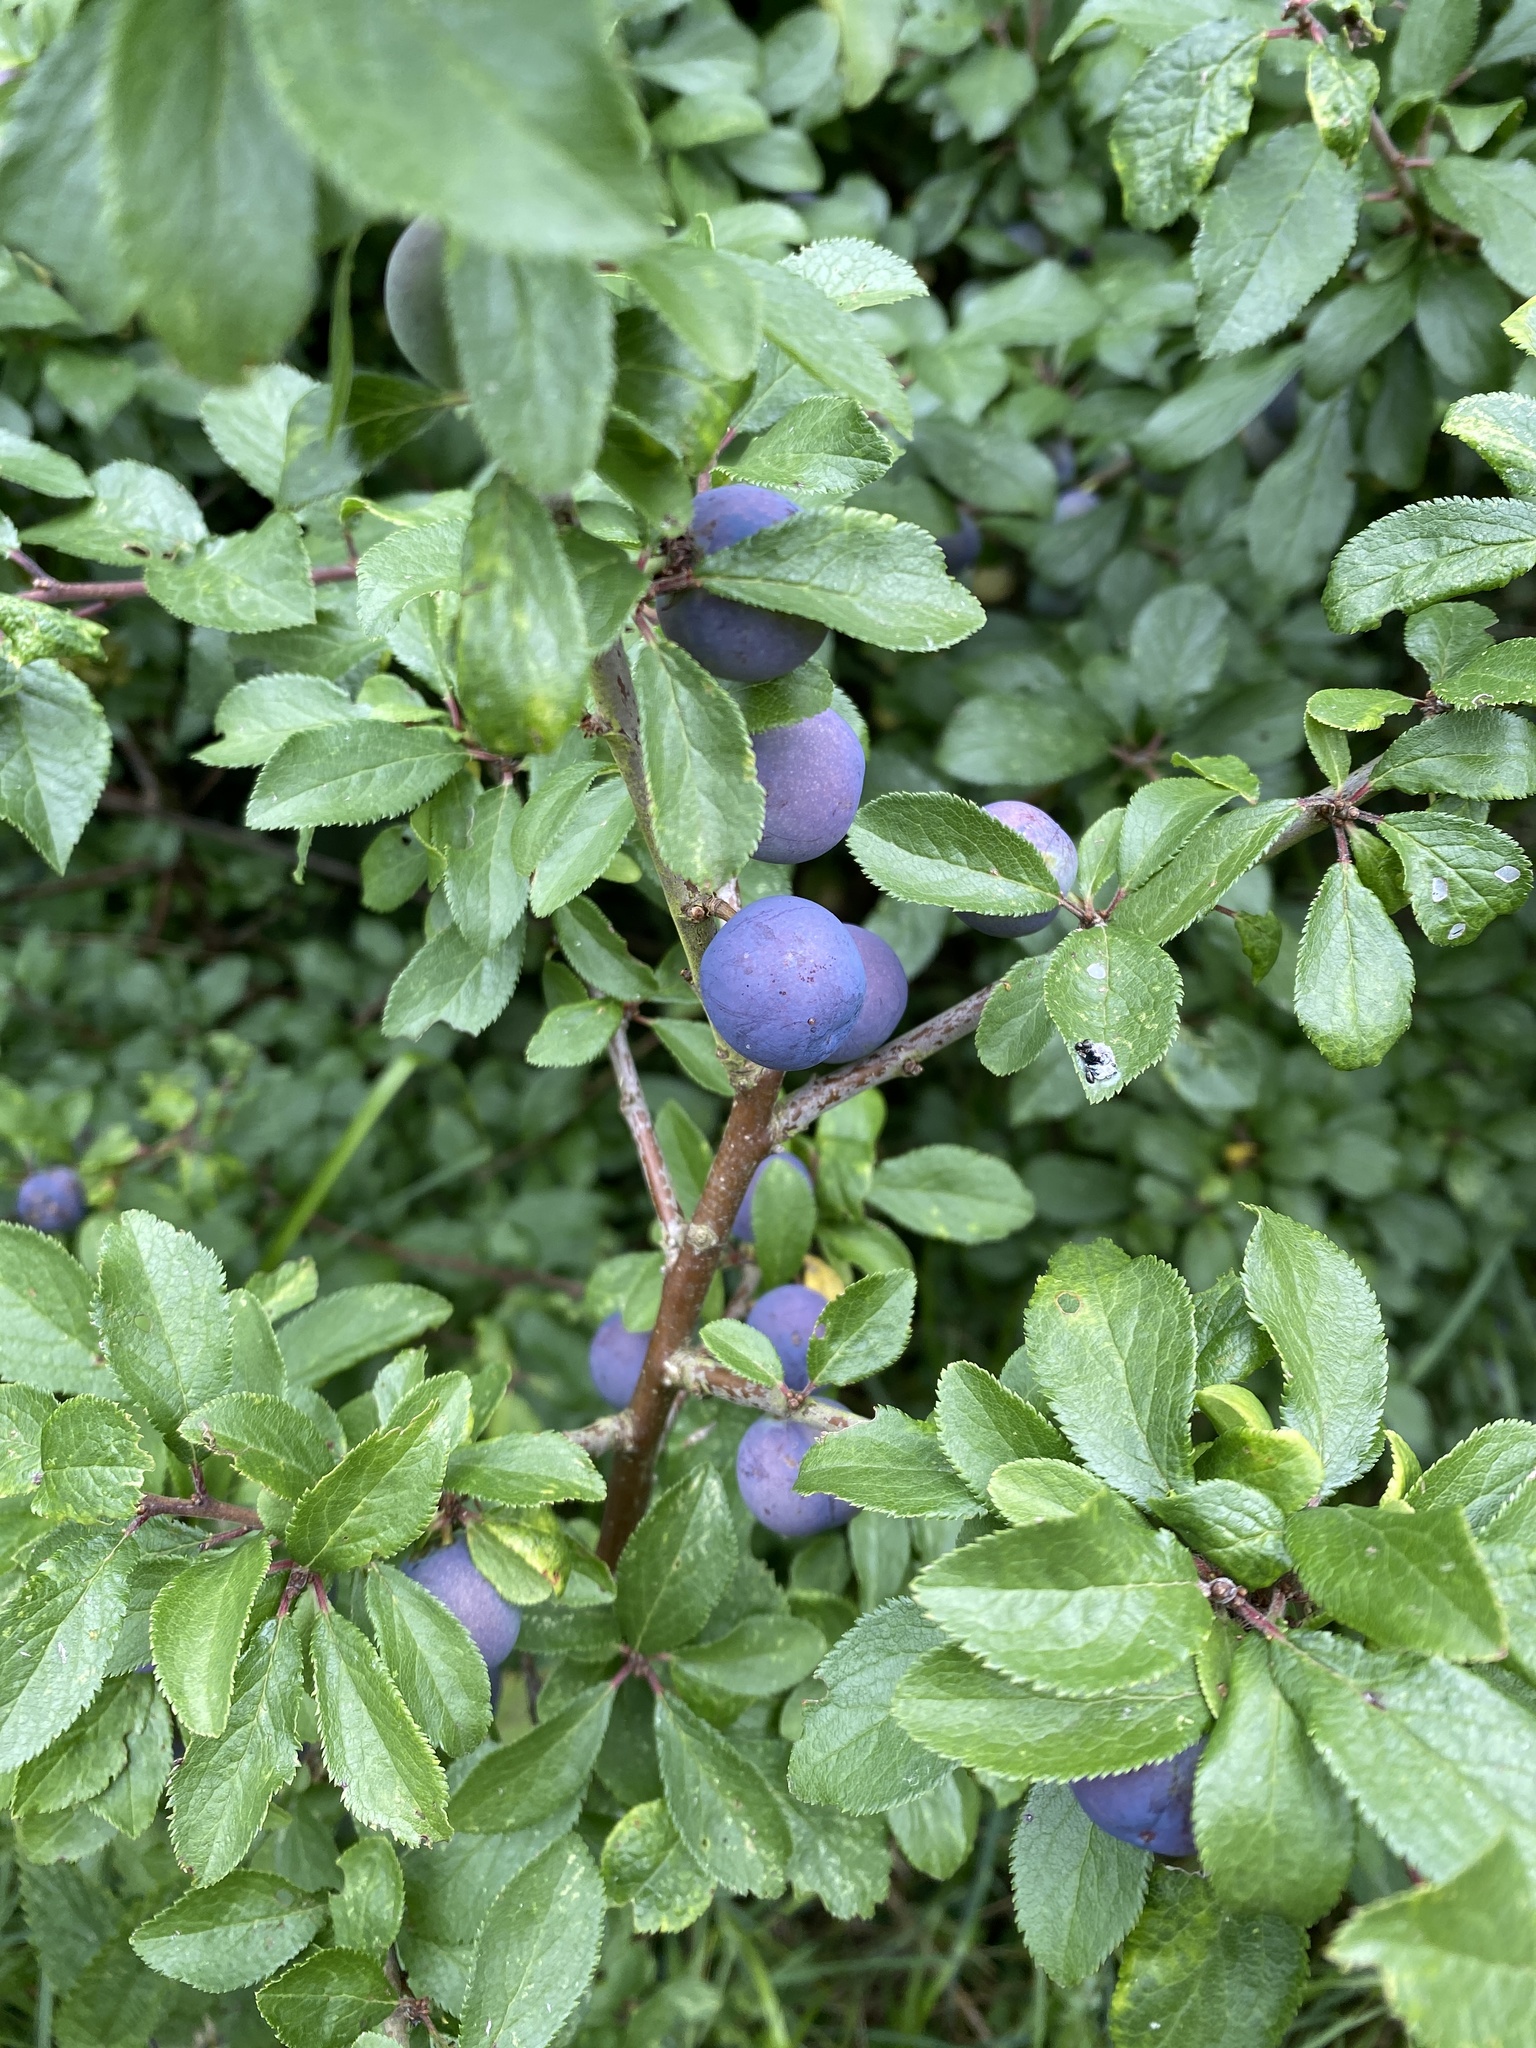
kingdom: Plantae
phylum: Tracheophyta
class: Magnoliopsida
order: Rosales
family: Rosaceae
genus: Prunus
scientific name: Prunus spinosa
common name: Blackthorn
